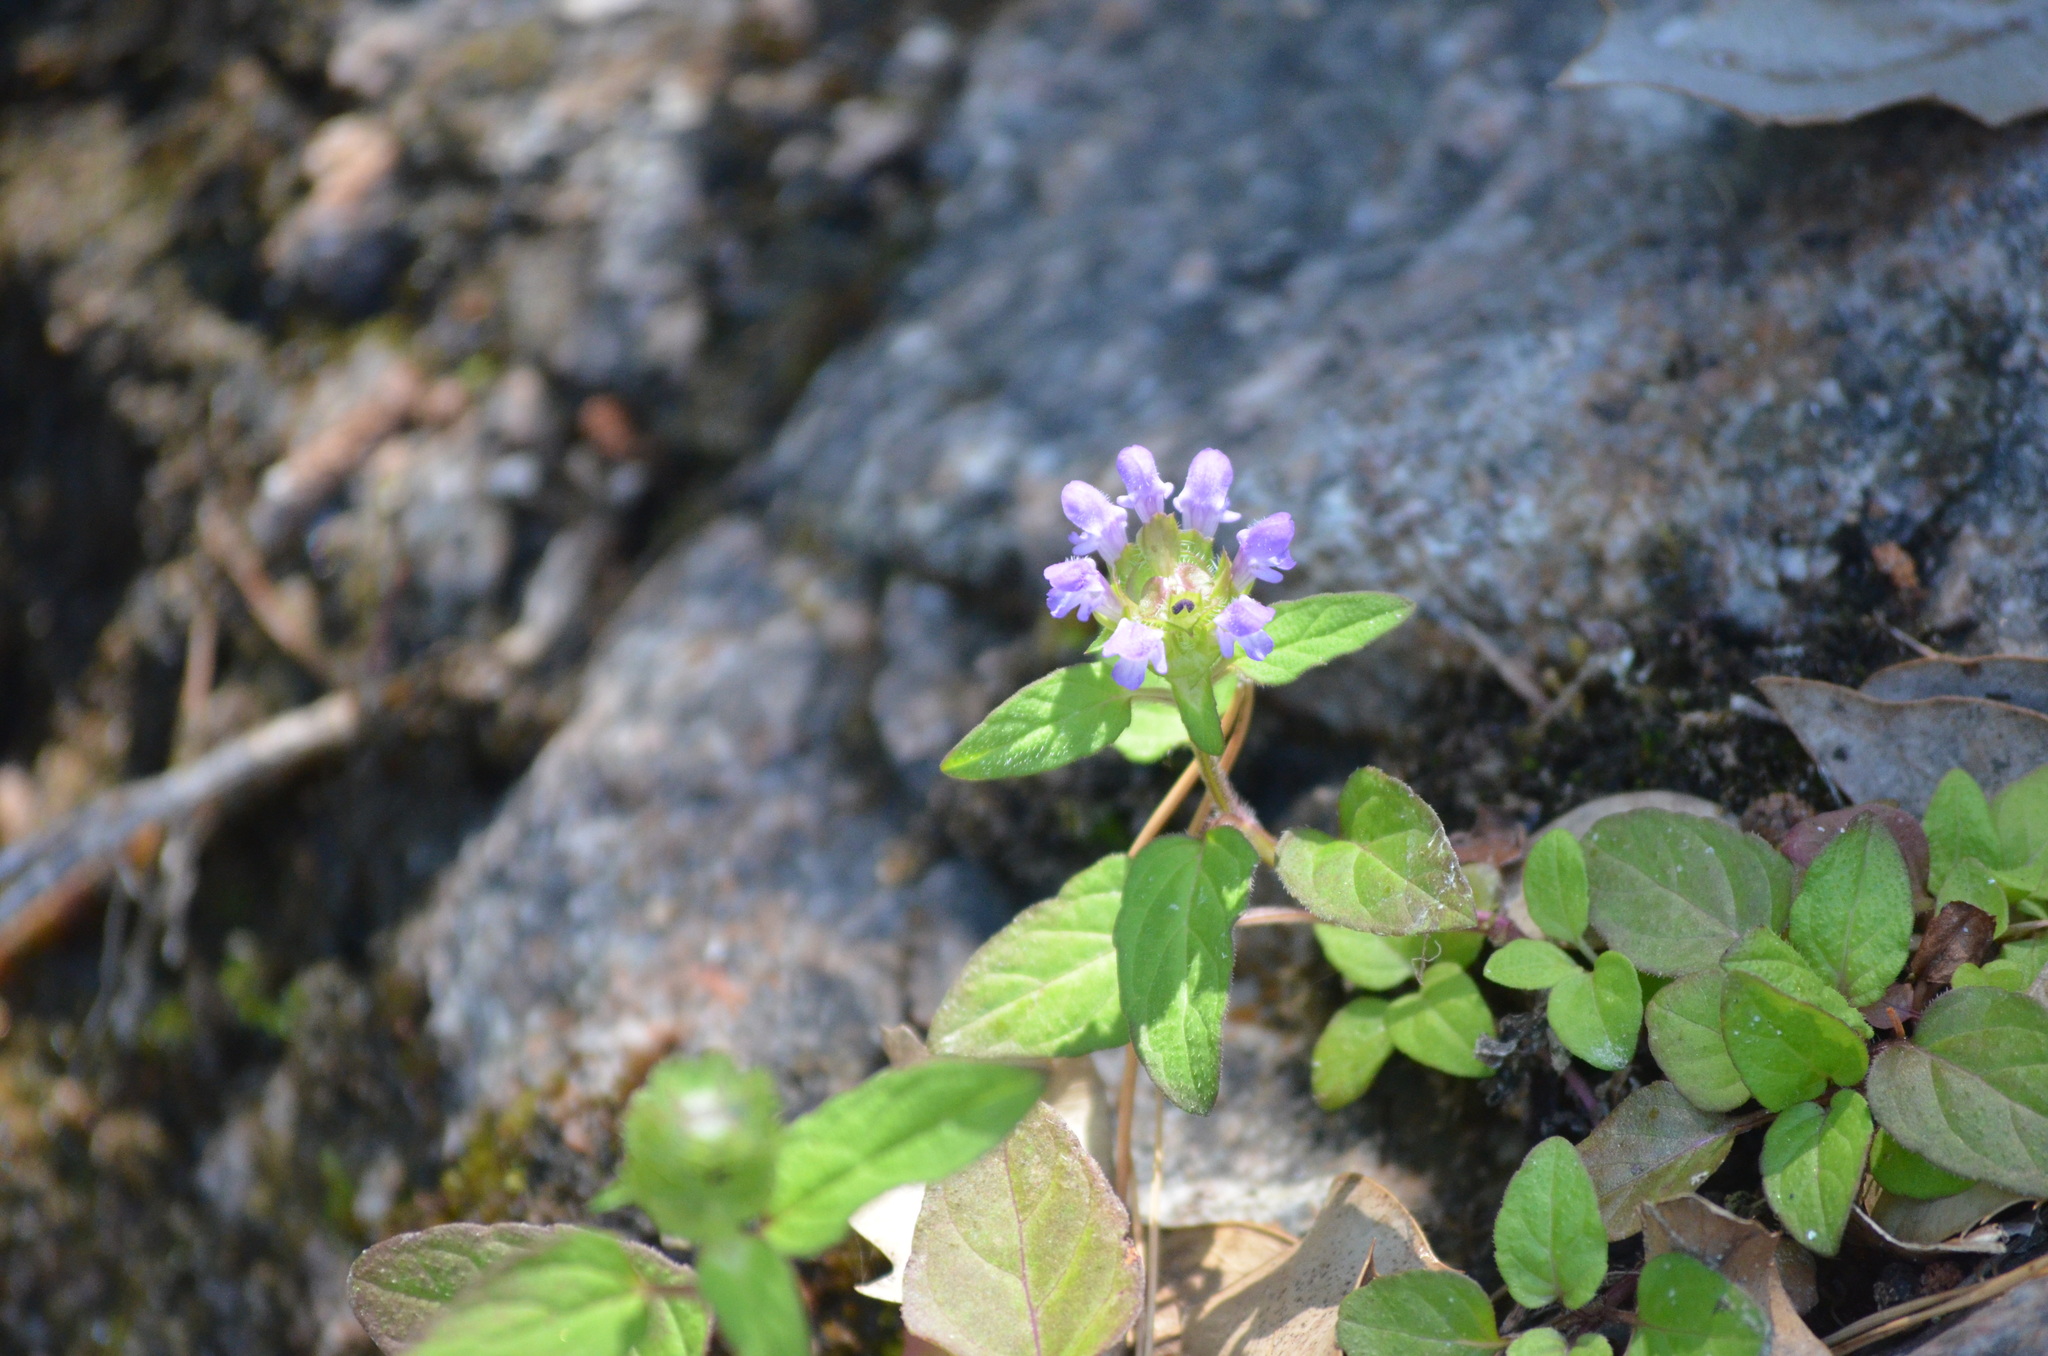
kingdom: Plantae
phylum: Tracheophyta
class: Magnoliopsida
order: Lamiales
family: Lamiaceae
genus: Prunella
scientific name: Prunella vulgaris
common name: Heal-all
